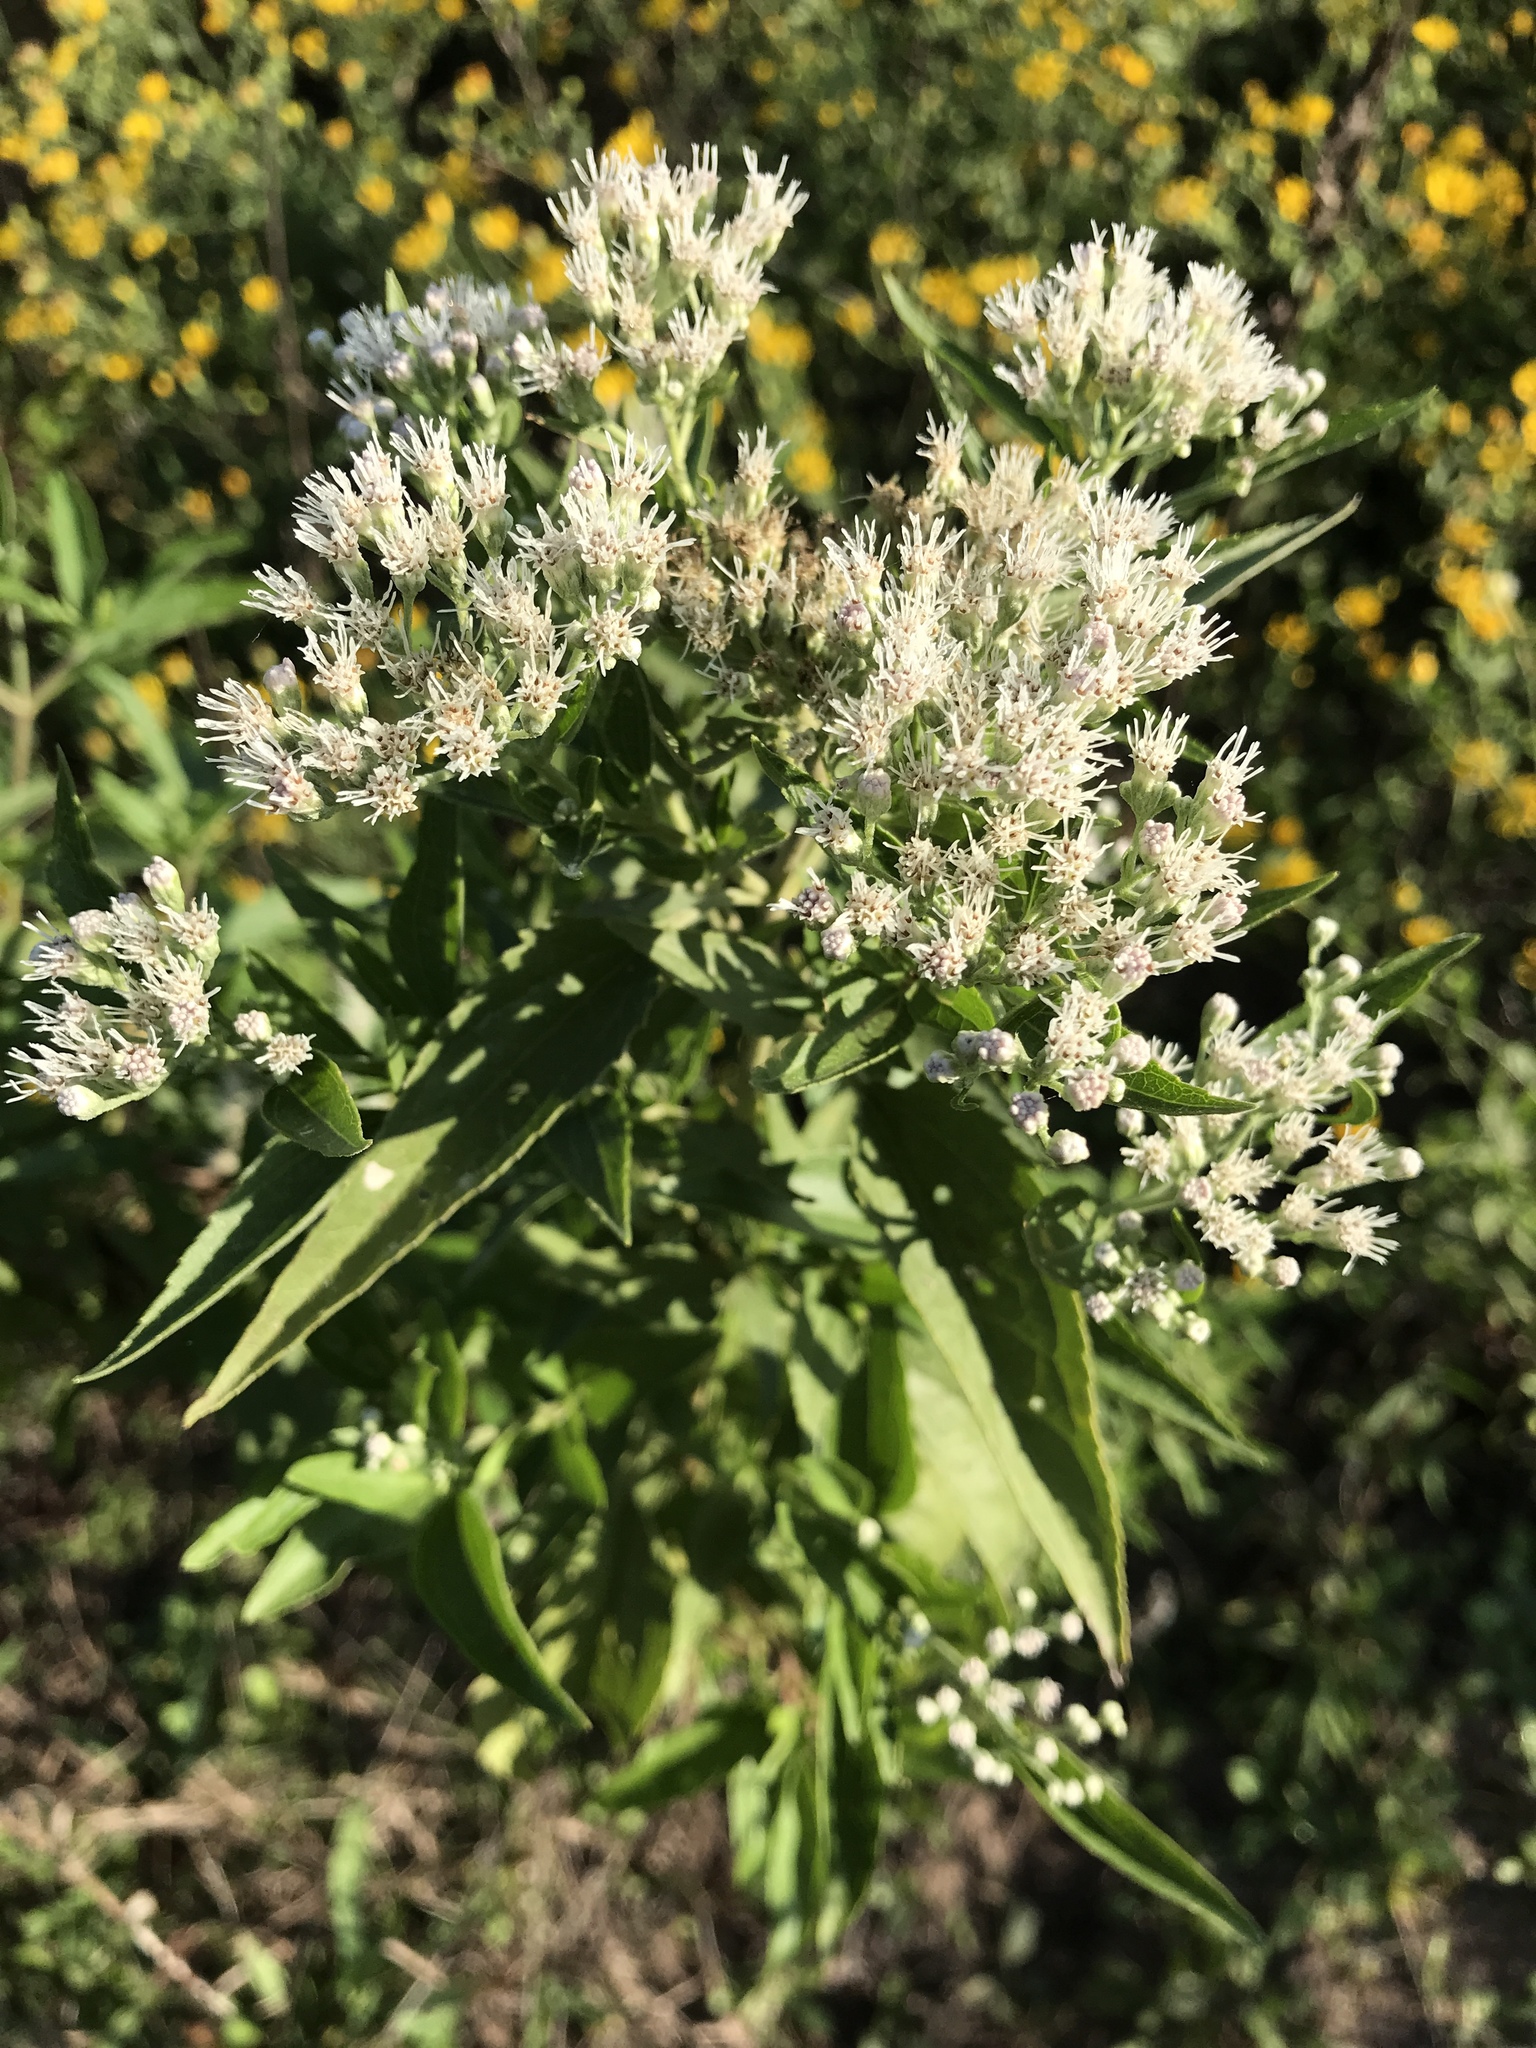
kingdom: Plantae
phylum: Tracheophyta
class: Magnoliopsida
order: Asterales
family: Asteraceae
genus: Eupatorium
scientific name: Eupatorium serotinum
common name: Late boneset
